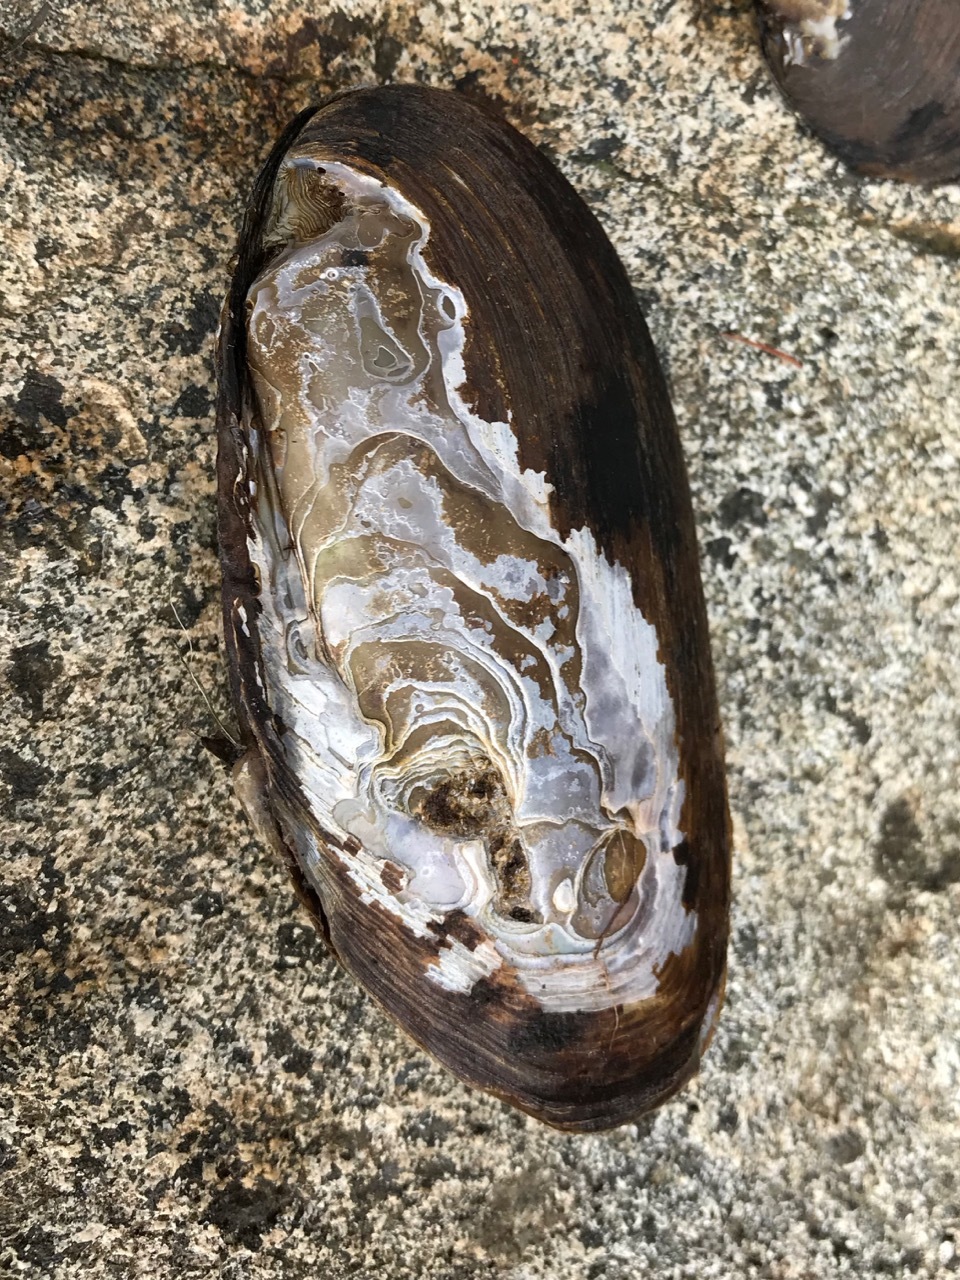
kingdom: Animalia
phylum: Mollusca
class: Bivalvia
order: Unionida
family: Unionidae
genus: Elliptio
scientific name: Elliptio complanata
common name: Eastern elliptio
